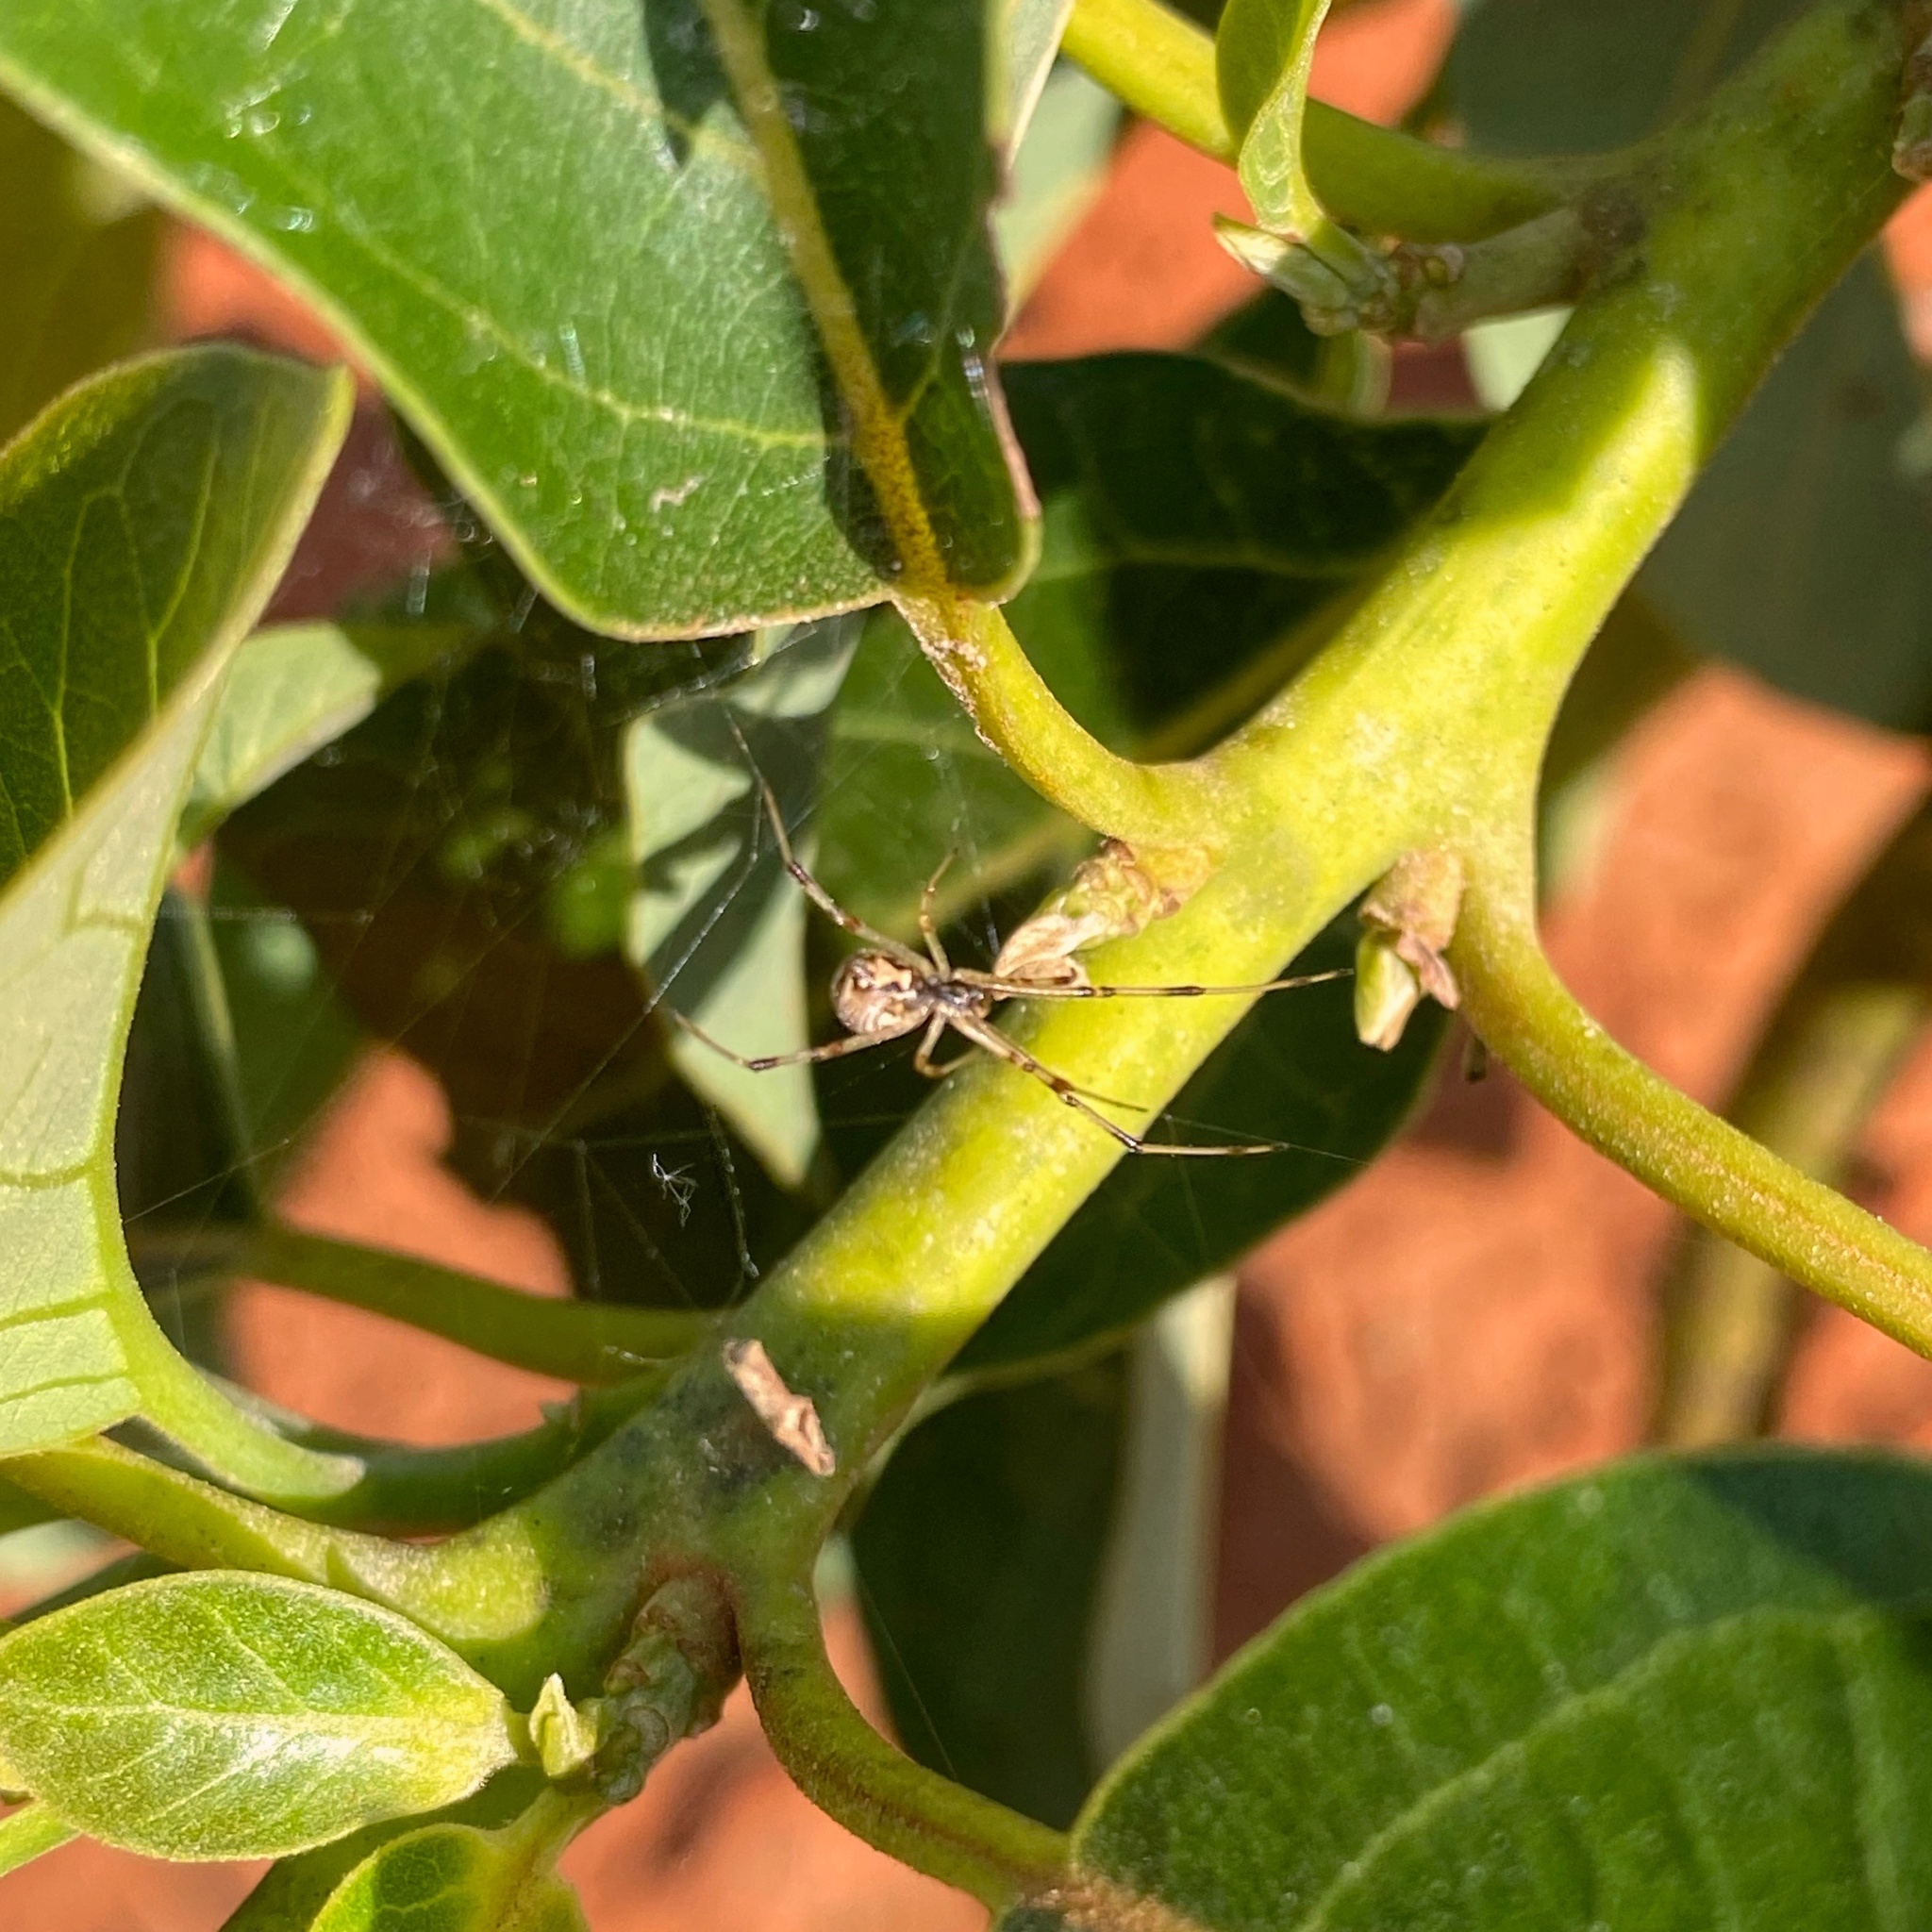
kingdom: Animalia
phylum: Arthropoda
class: Arachnida
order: Araneae
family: Theridiidae
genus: Latrodectus
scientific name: Latrodectus geometricus
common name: Brown widow spider
